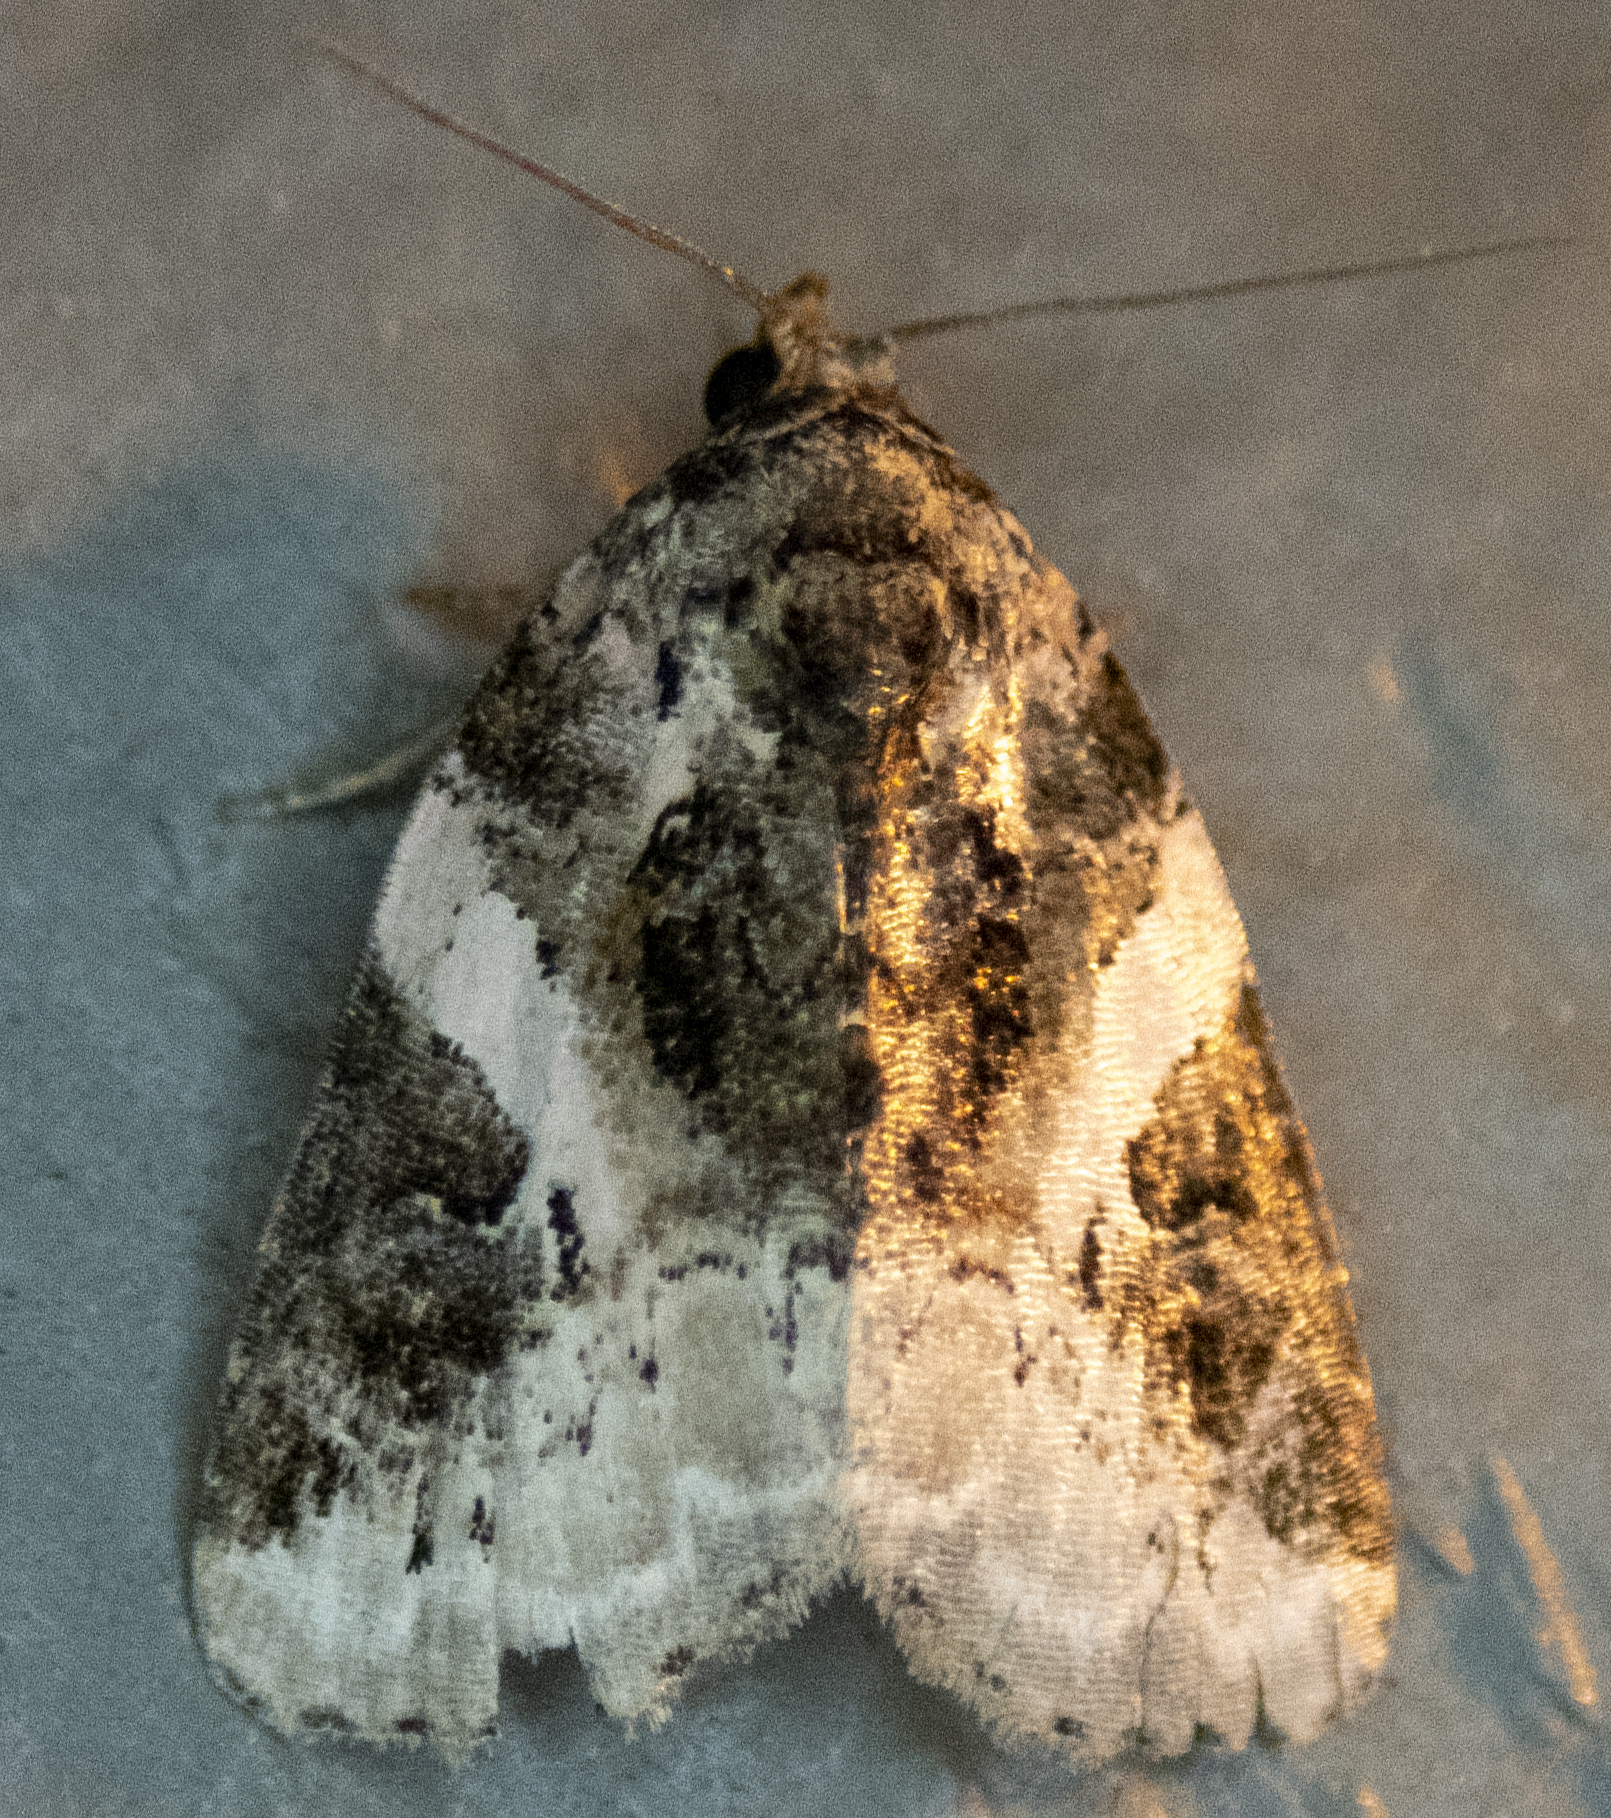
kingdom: Animalia
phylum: Arthropoda
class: Insecta
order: Lepidoptera
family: Noctuidae
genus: Pseudeustrotia
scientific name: Pseudeustrotia carneola
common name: Pink-barred lithacodia moth
